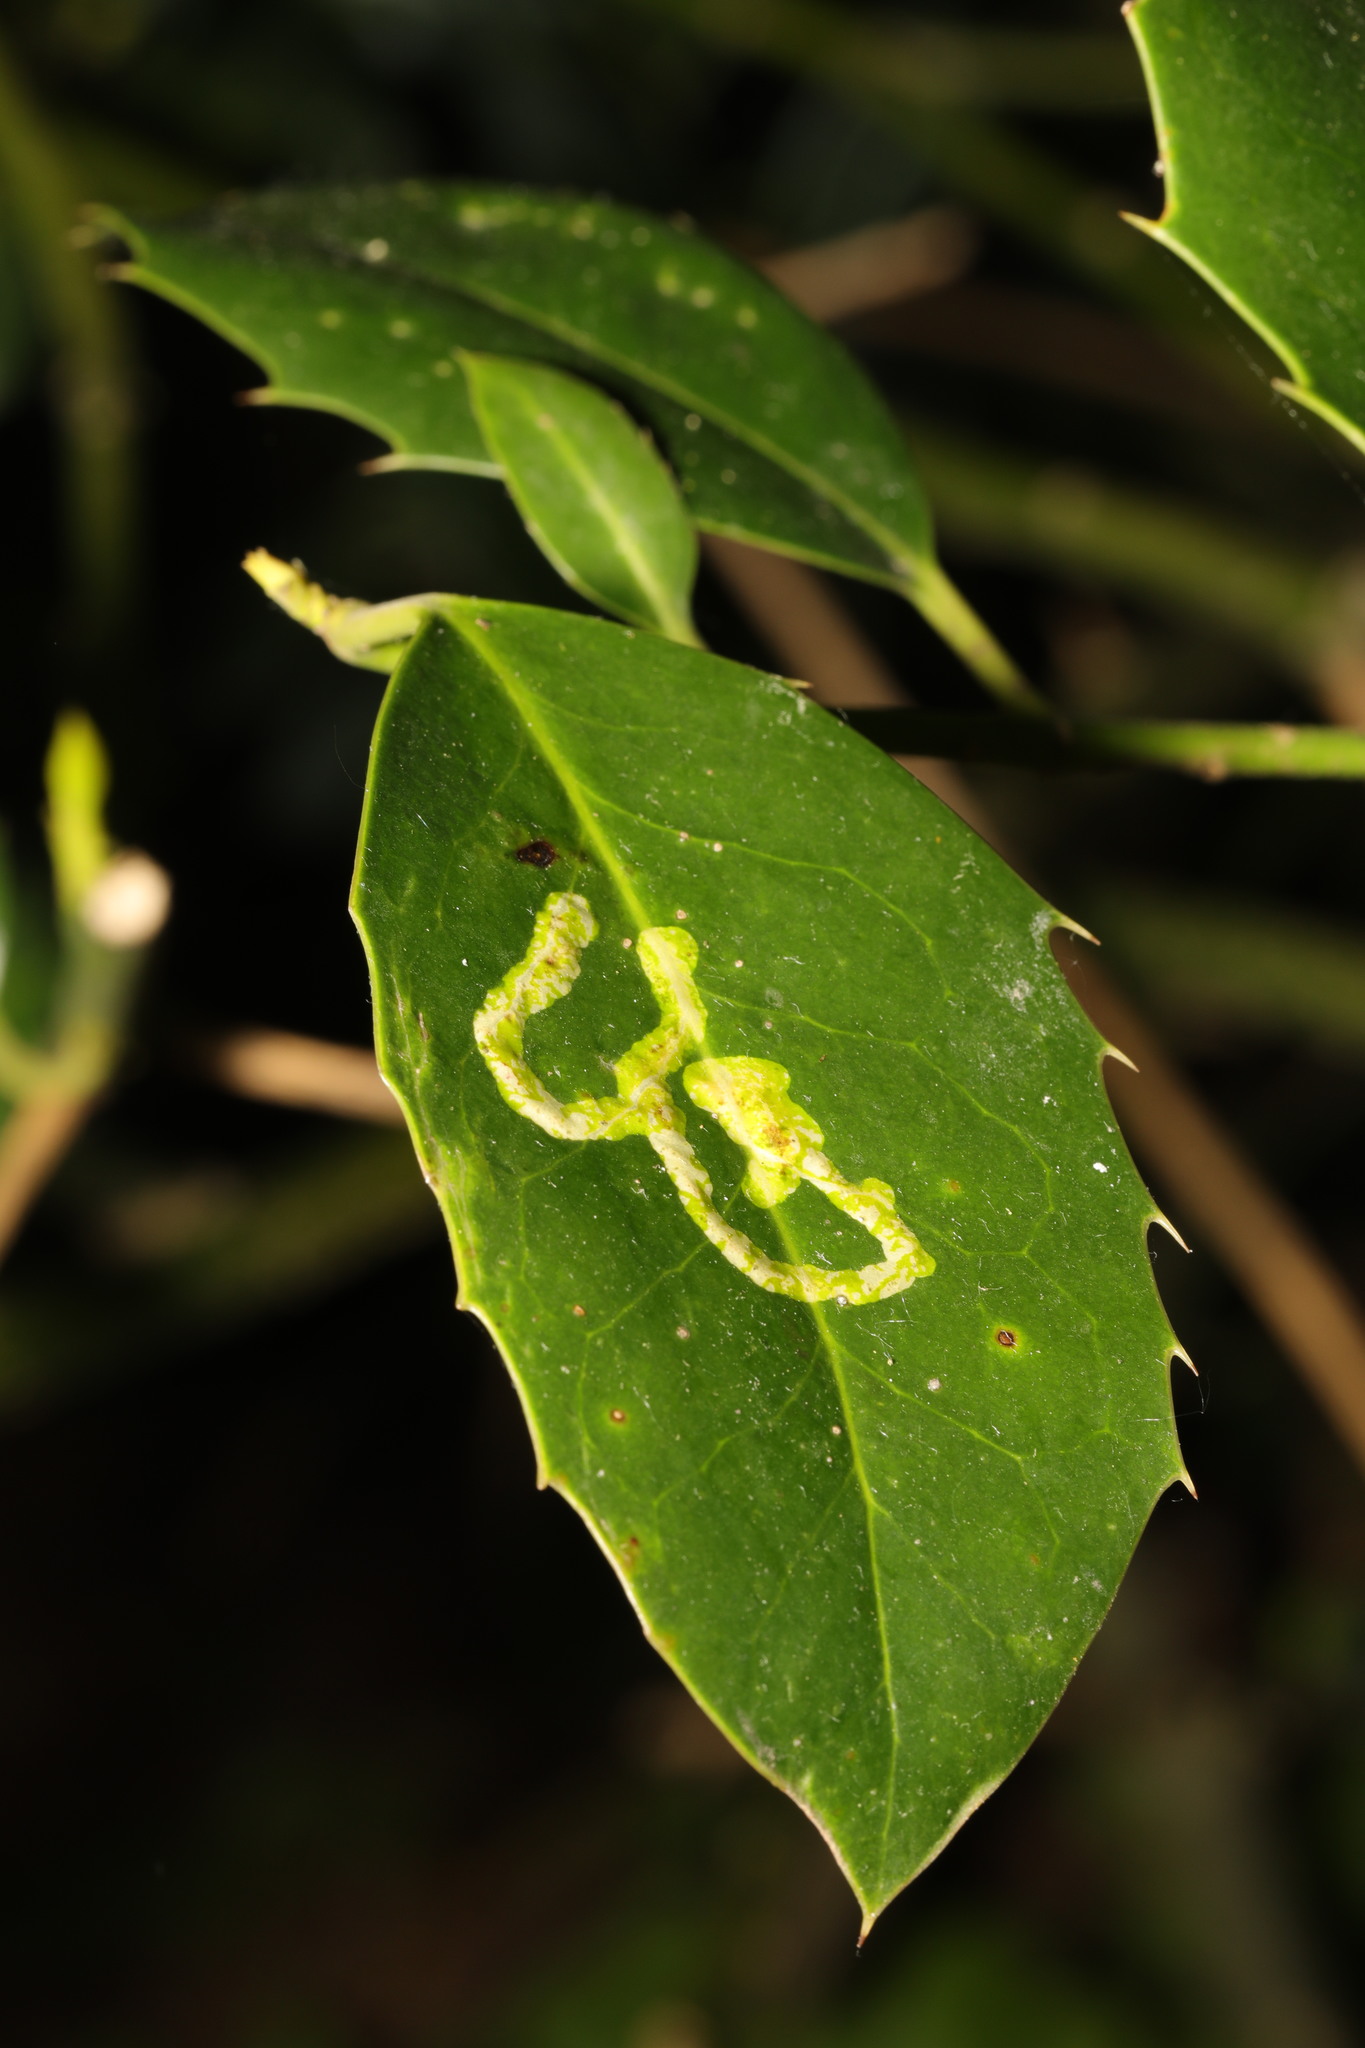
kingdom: Animalia
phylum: Arthropoda
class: Insecta
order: Diptera
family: Agromyzidae
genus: Phytomyza
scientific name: Phytomyza ilicis
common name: Holly leafminer
